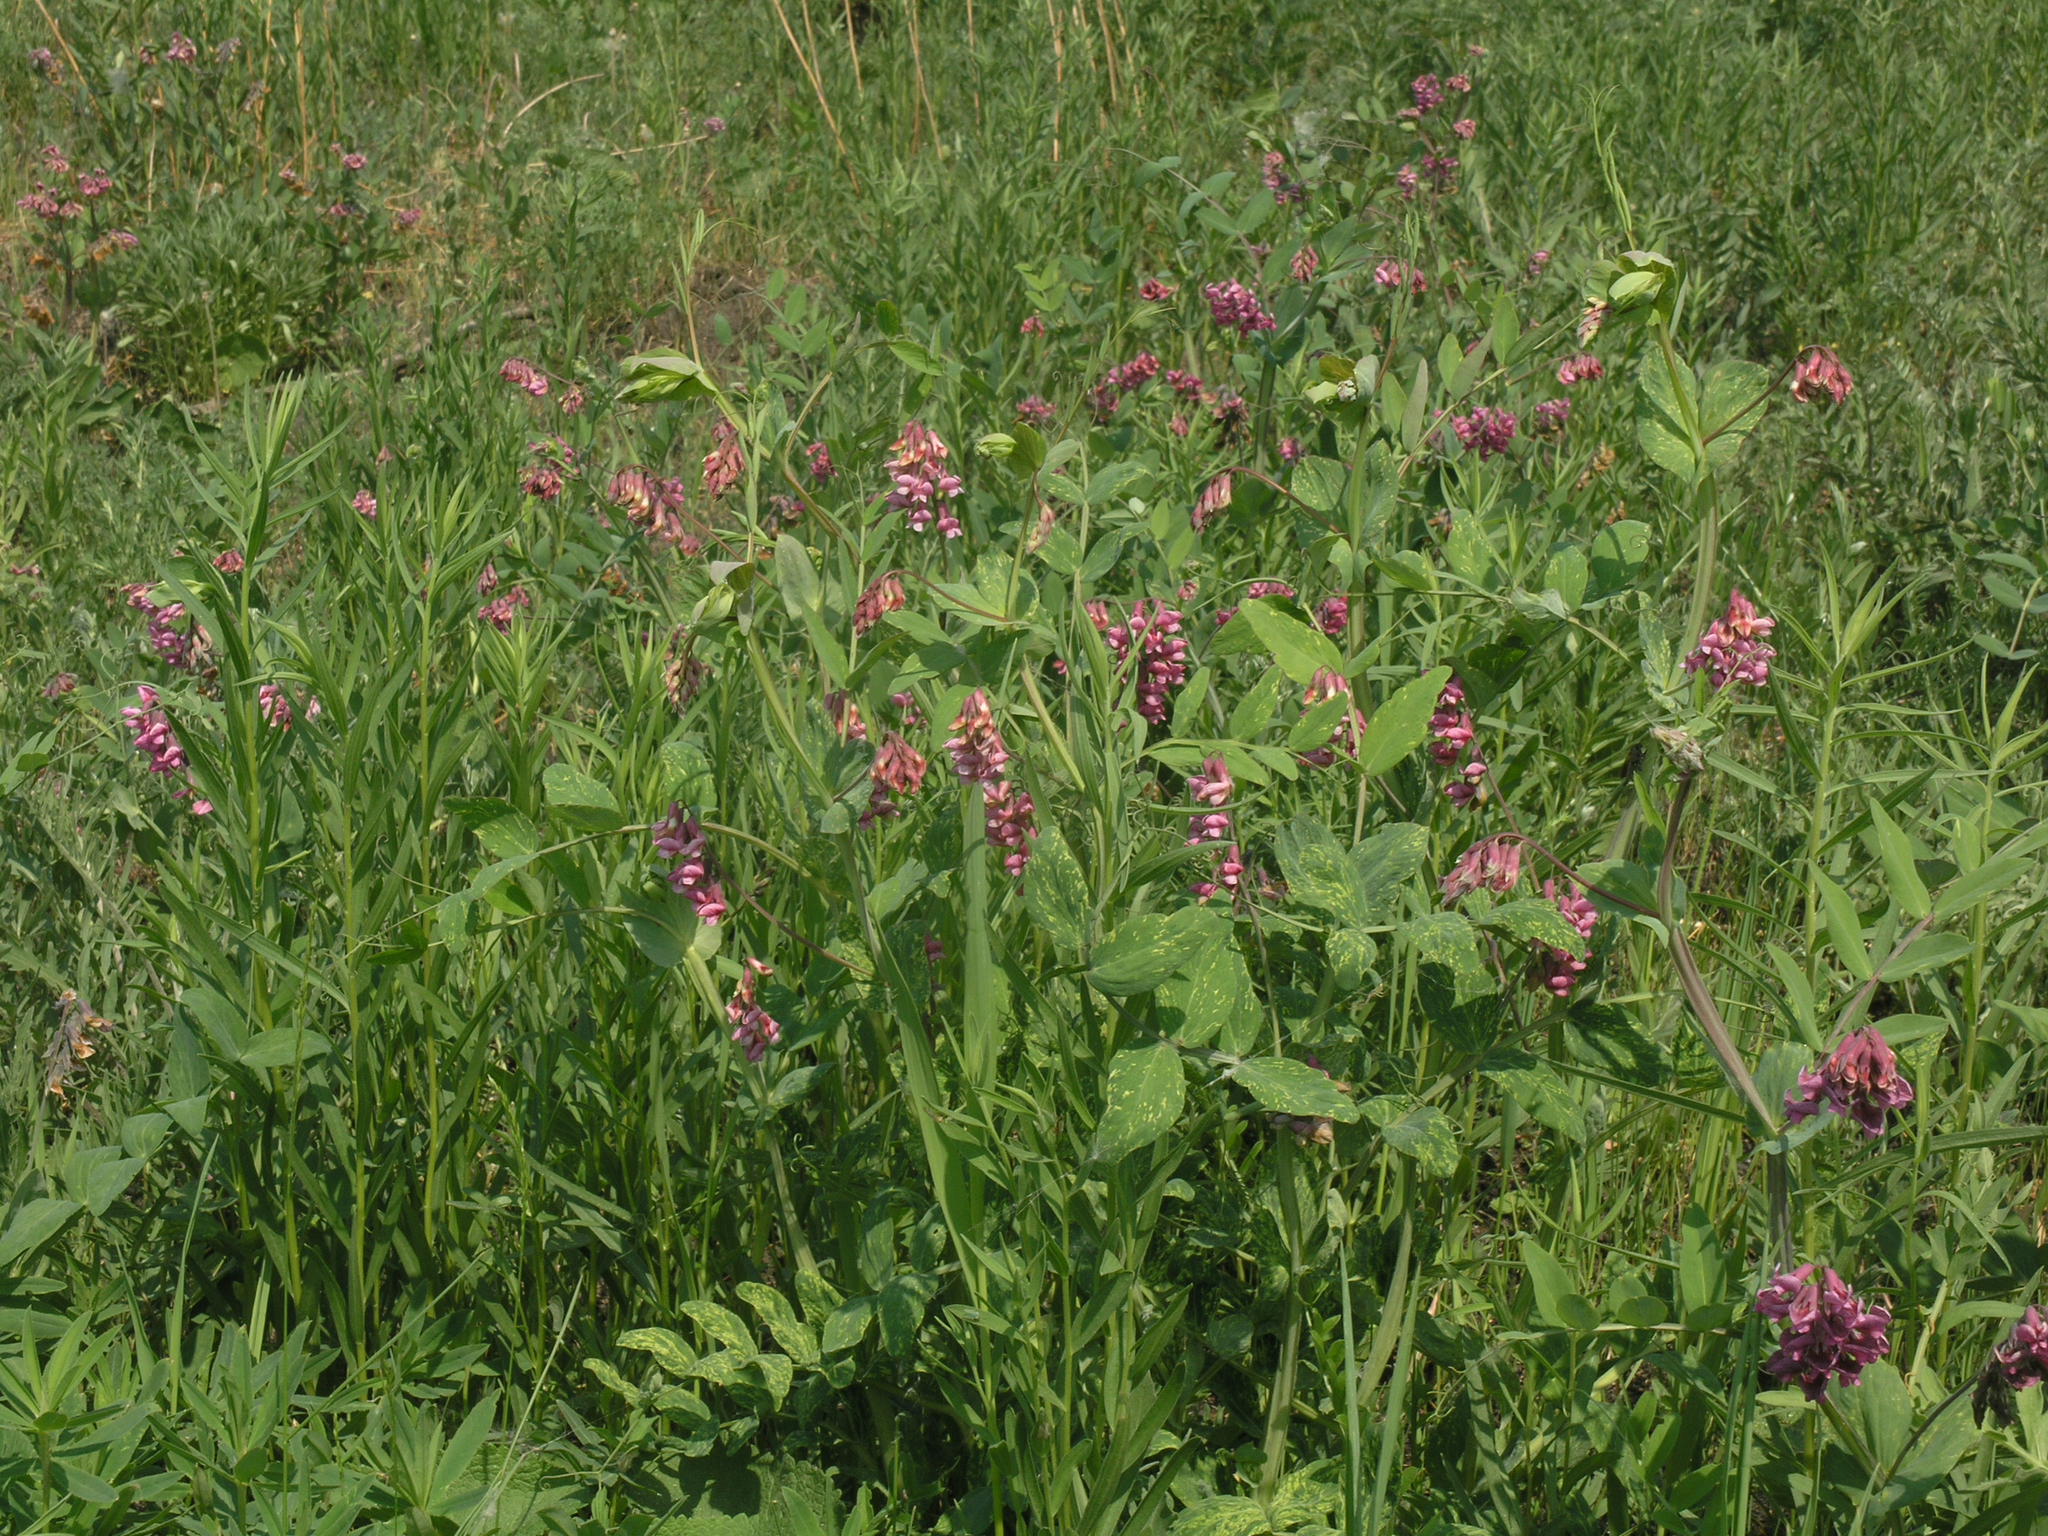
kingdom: Plantae
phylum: Tracheophyta
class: Magnoliopsida
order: Fabales
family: Fabaceae
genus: Lathyrus
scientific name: Lathyrus pisiformis
